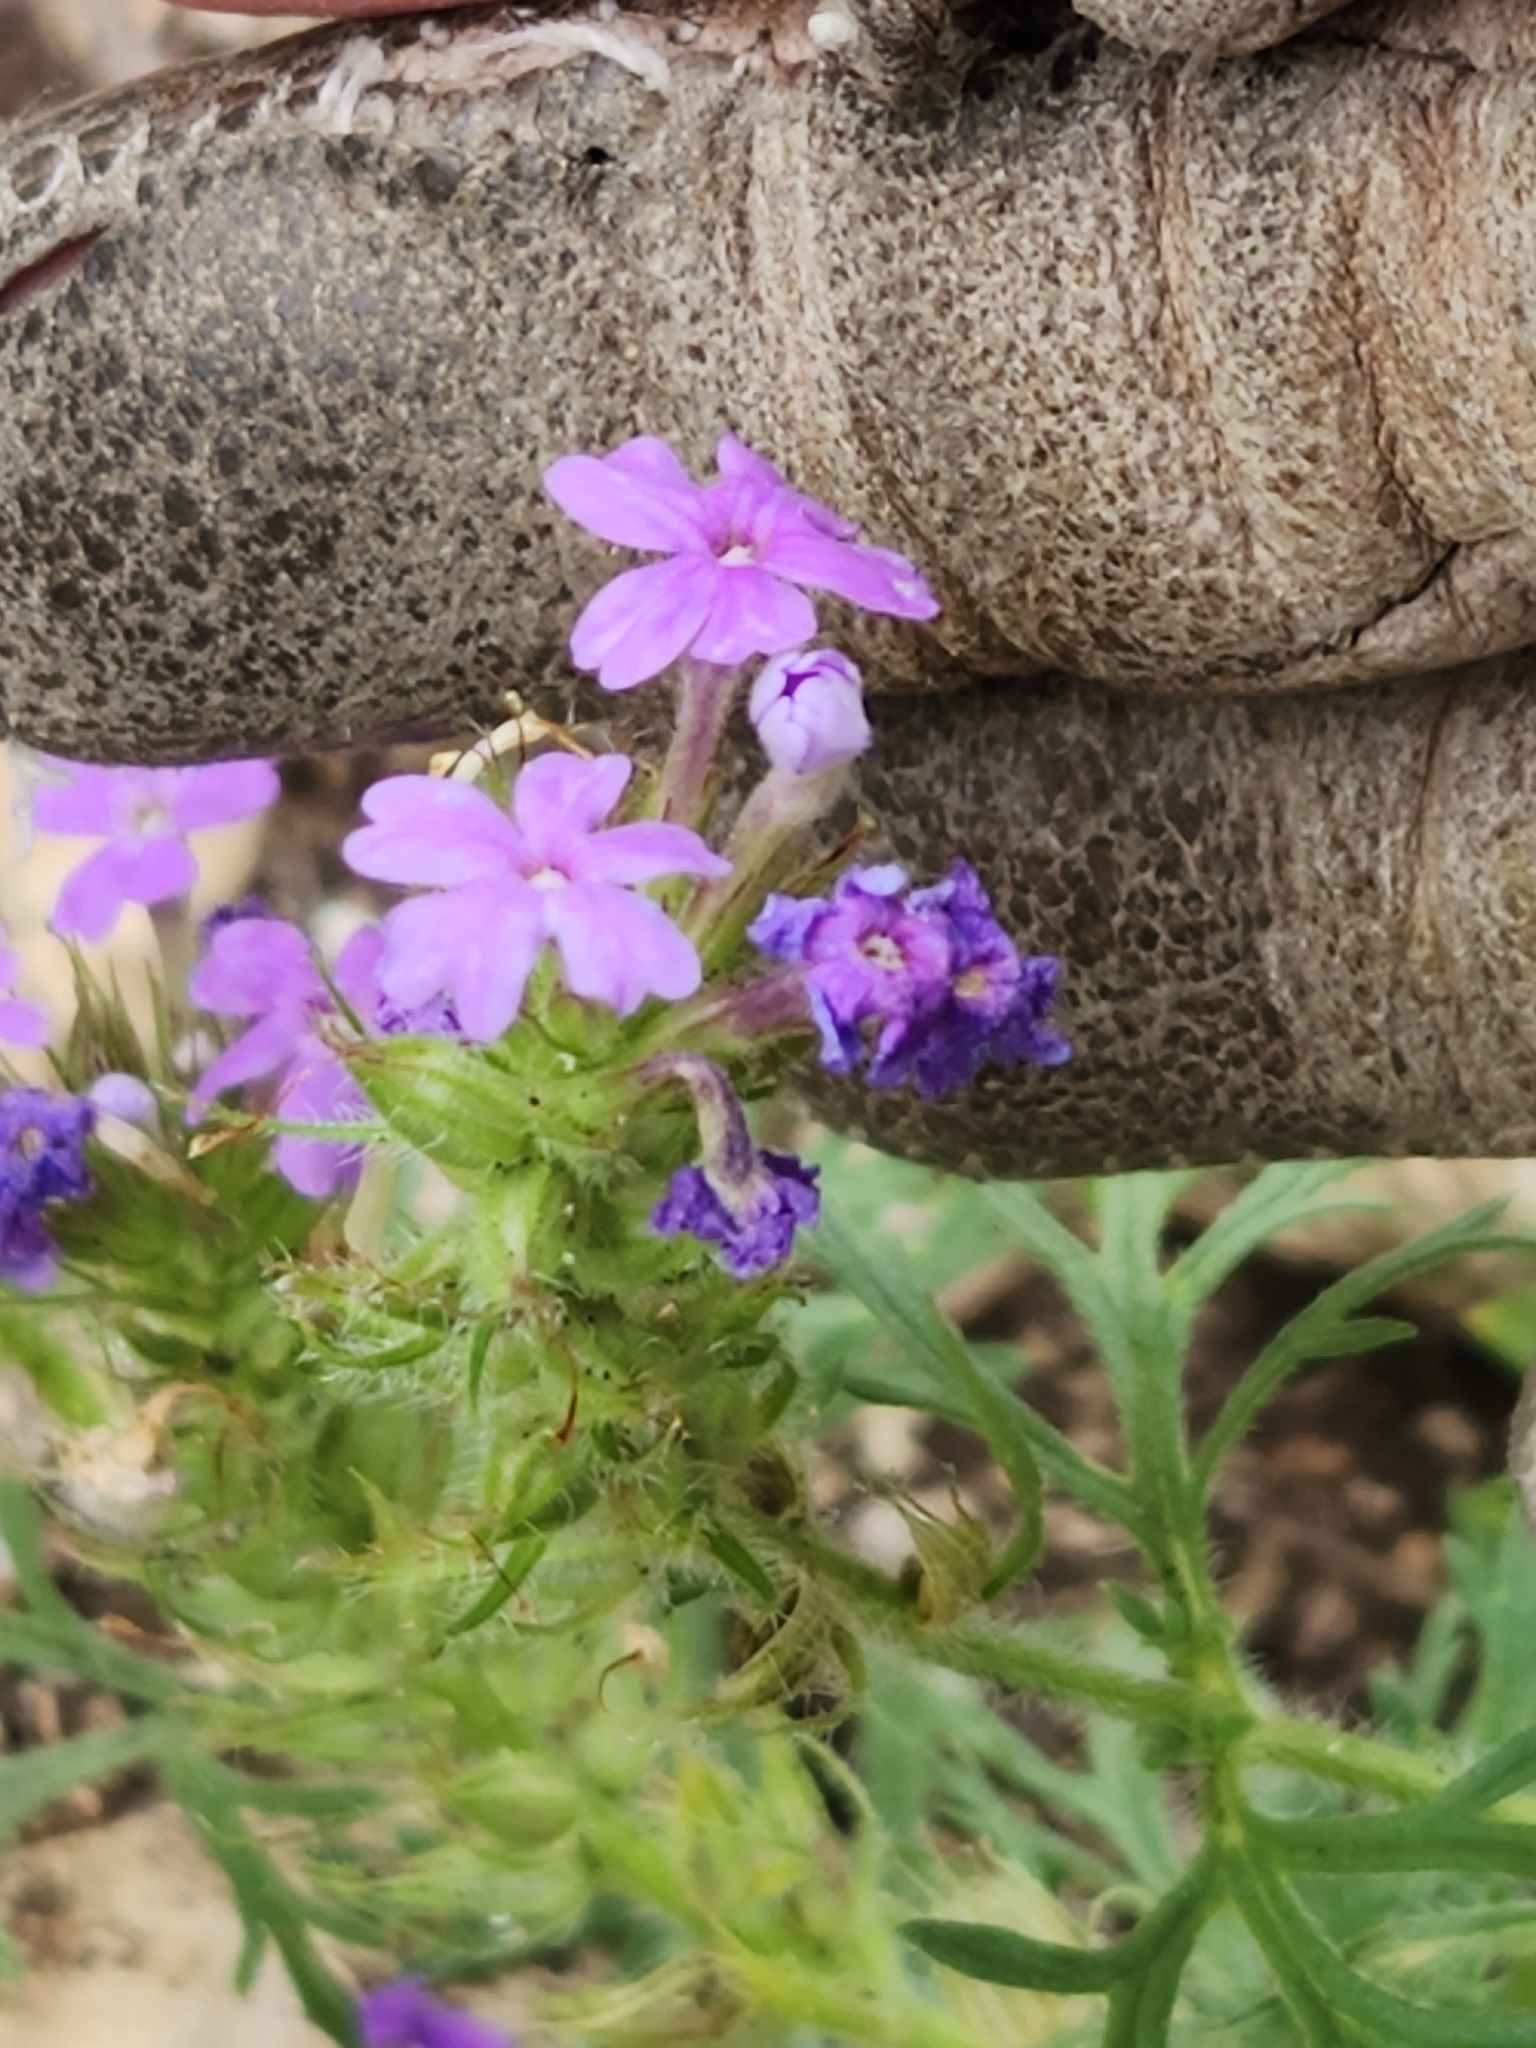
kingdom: Plantae
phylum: Tracheophyta
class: Magnoliopsida
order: Lamiales
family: Verbenaceae
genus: Verbena
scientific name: Verbena bipinnatifida
